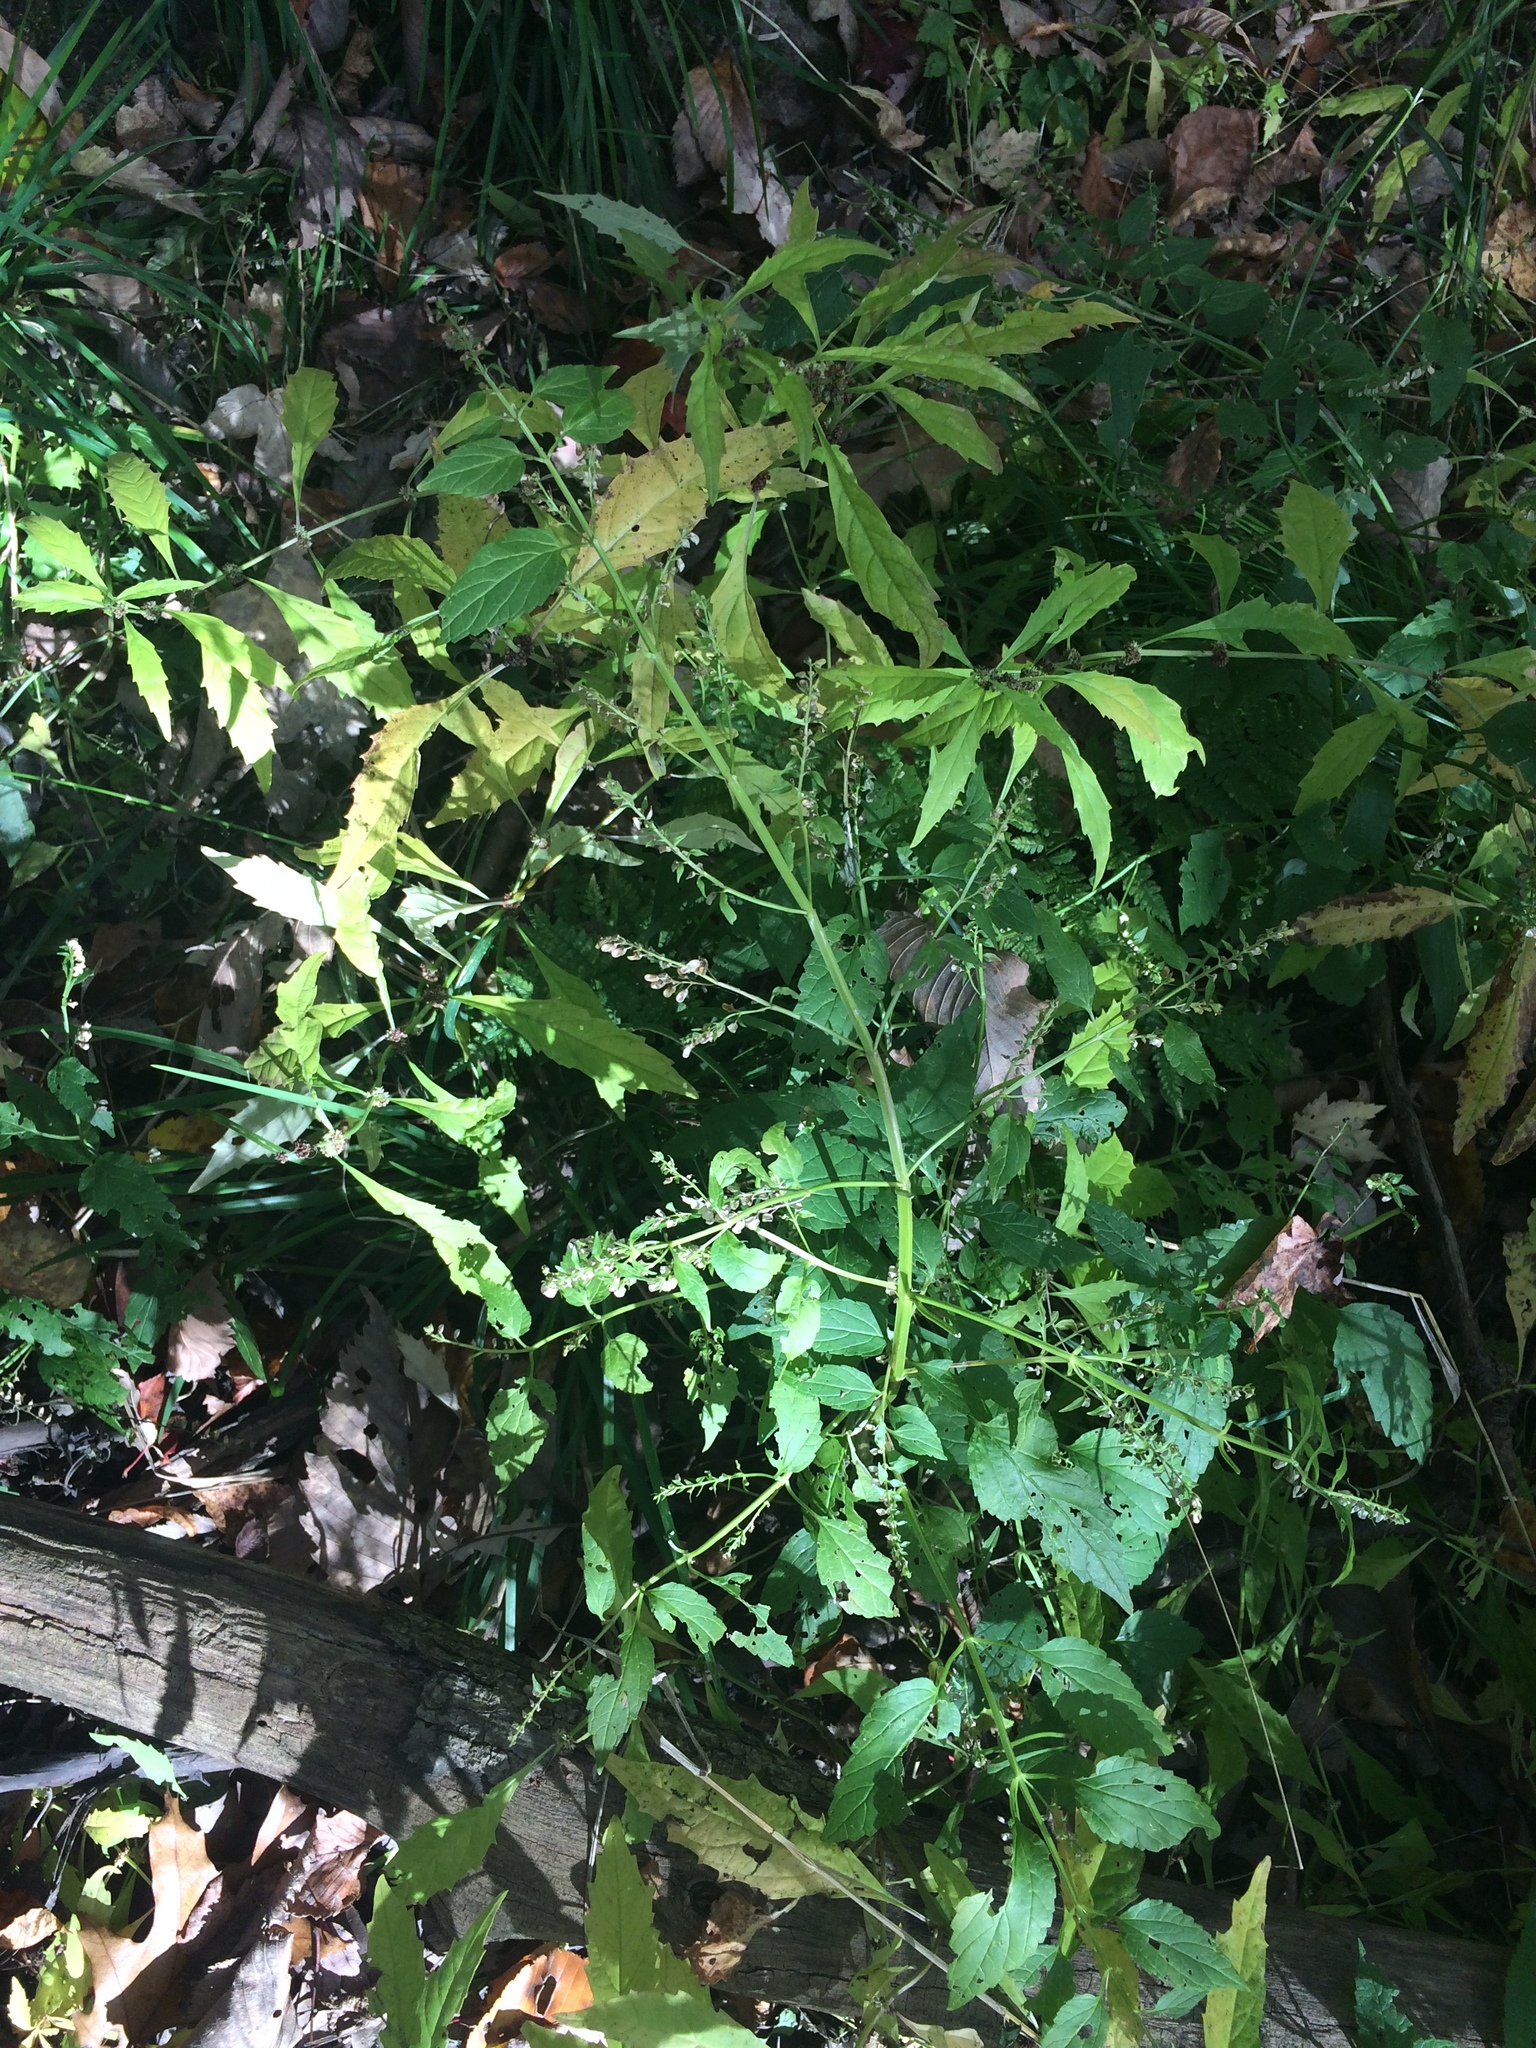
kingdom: Plantae
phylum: Tracheophyta
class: Magnoliopsida
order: Lamiales
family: Lamiaceae
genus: Scutellaria
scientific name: Scutellaria lateriflora
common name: Blue skullcap
